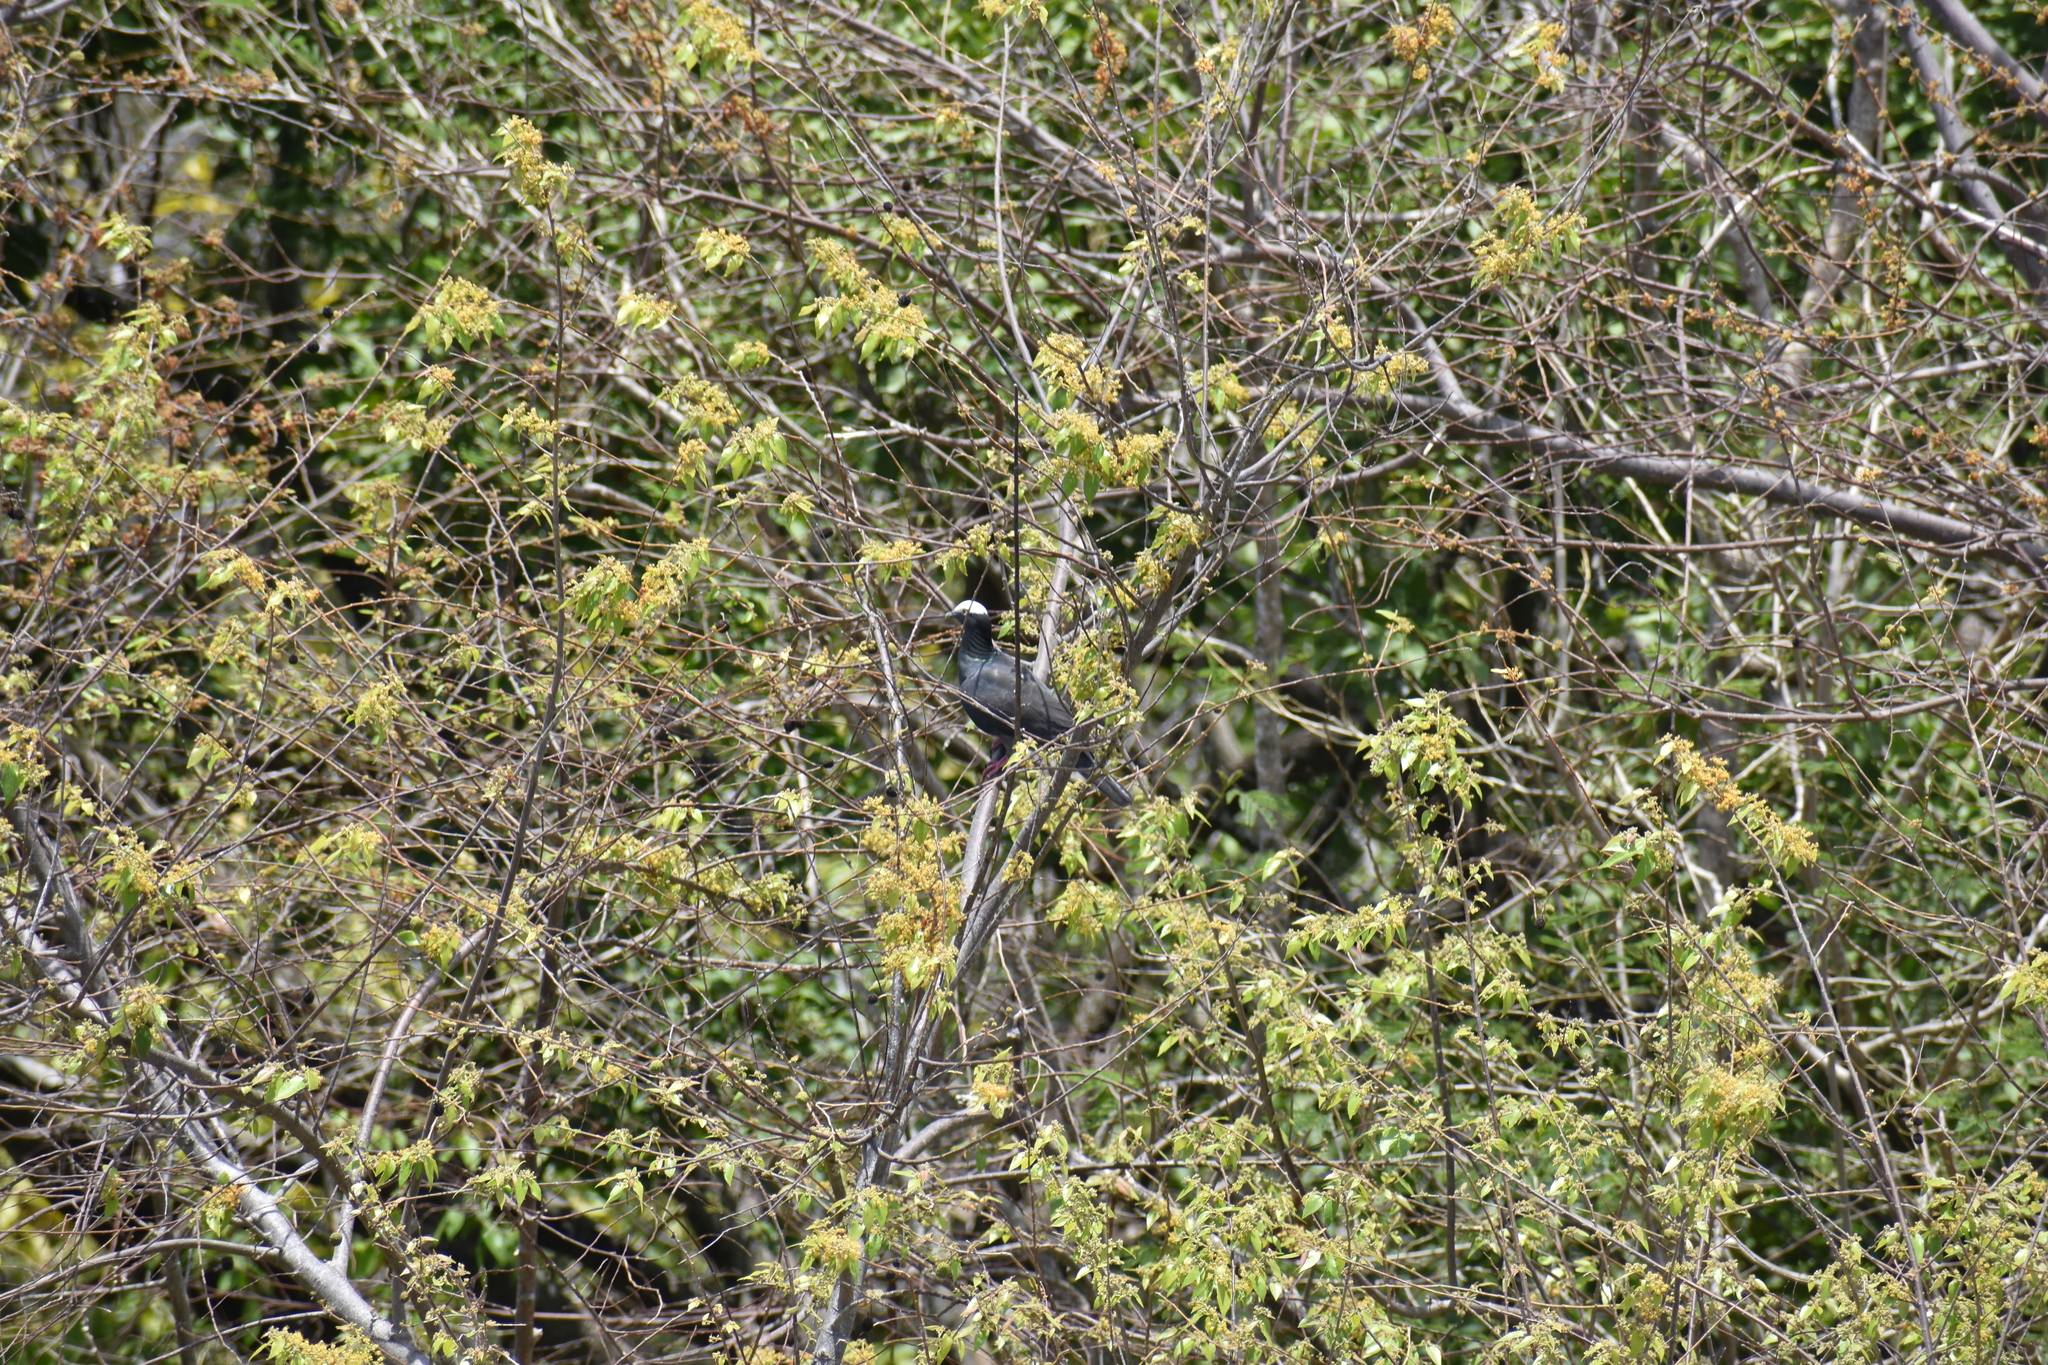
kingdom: Animalia
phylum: Chordata
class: Aves
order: Columbiformes
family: Columbidae
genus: Patagioenas
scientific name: Patagioenas leucocephala
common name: White-crowned pigeon
